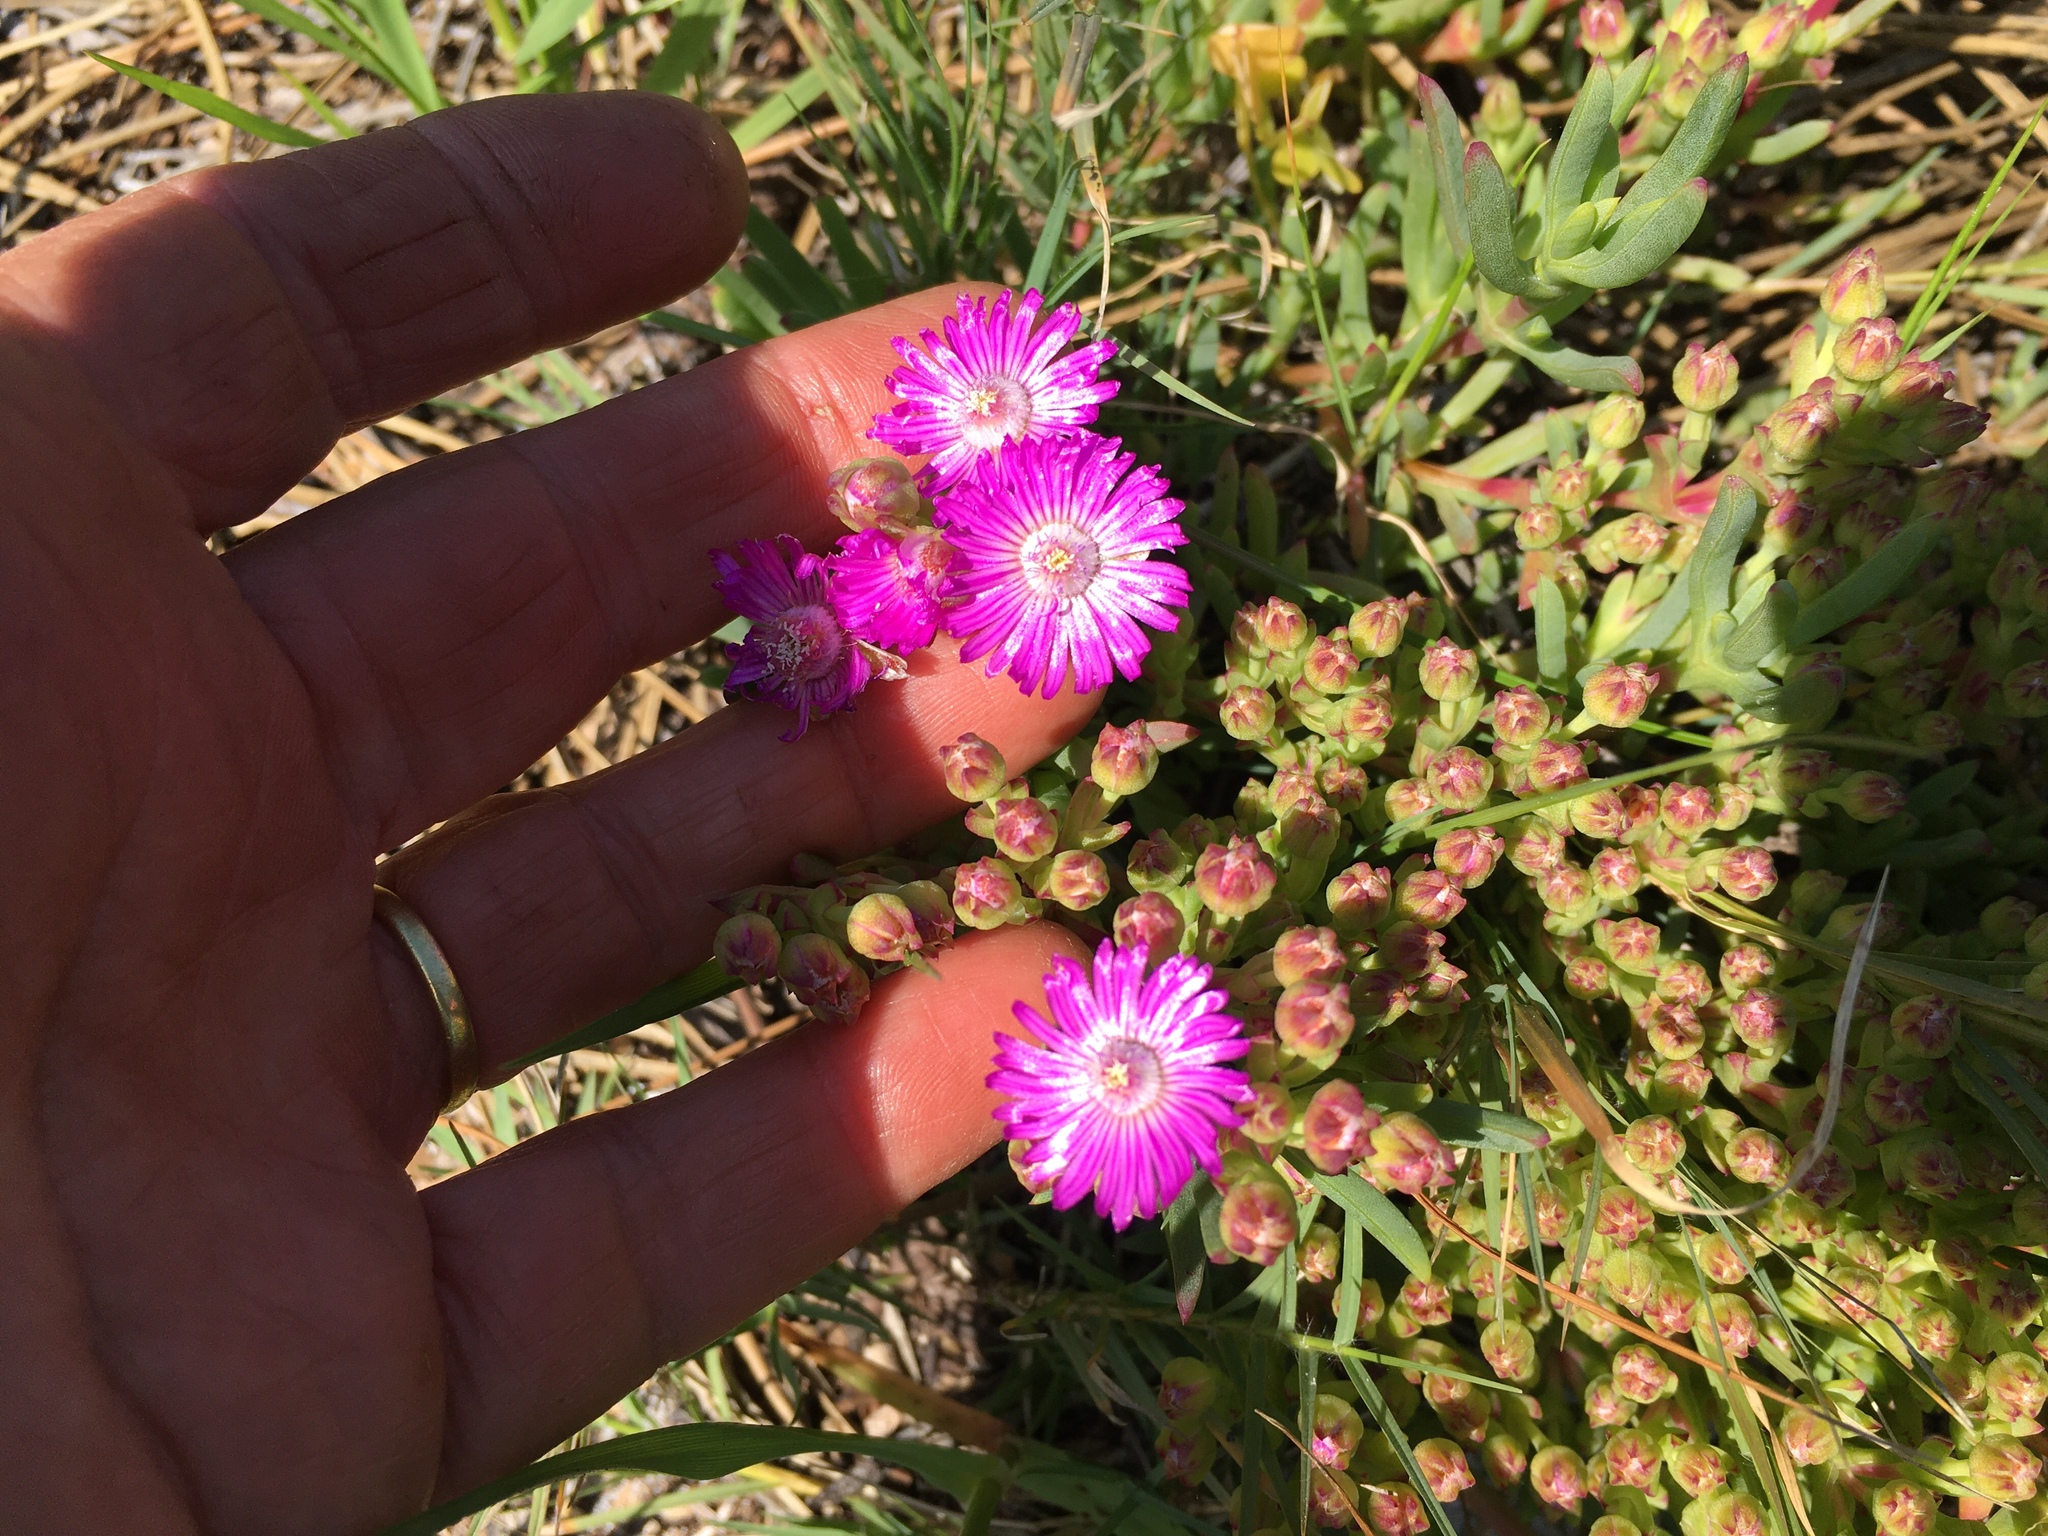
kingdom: Plantae
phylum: Tracheophyta
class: Magnoliopsida
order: Caryophyllales
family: Aizoaceae
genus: Ruschia
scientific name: Ruschia macowanii
